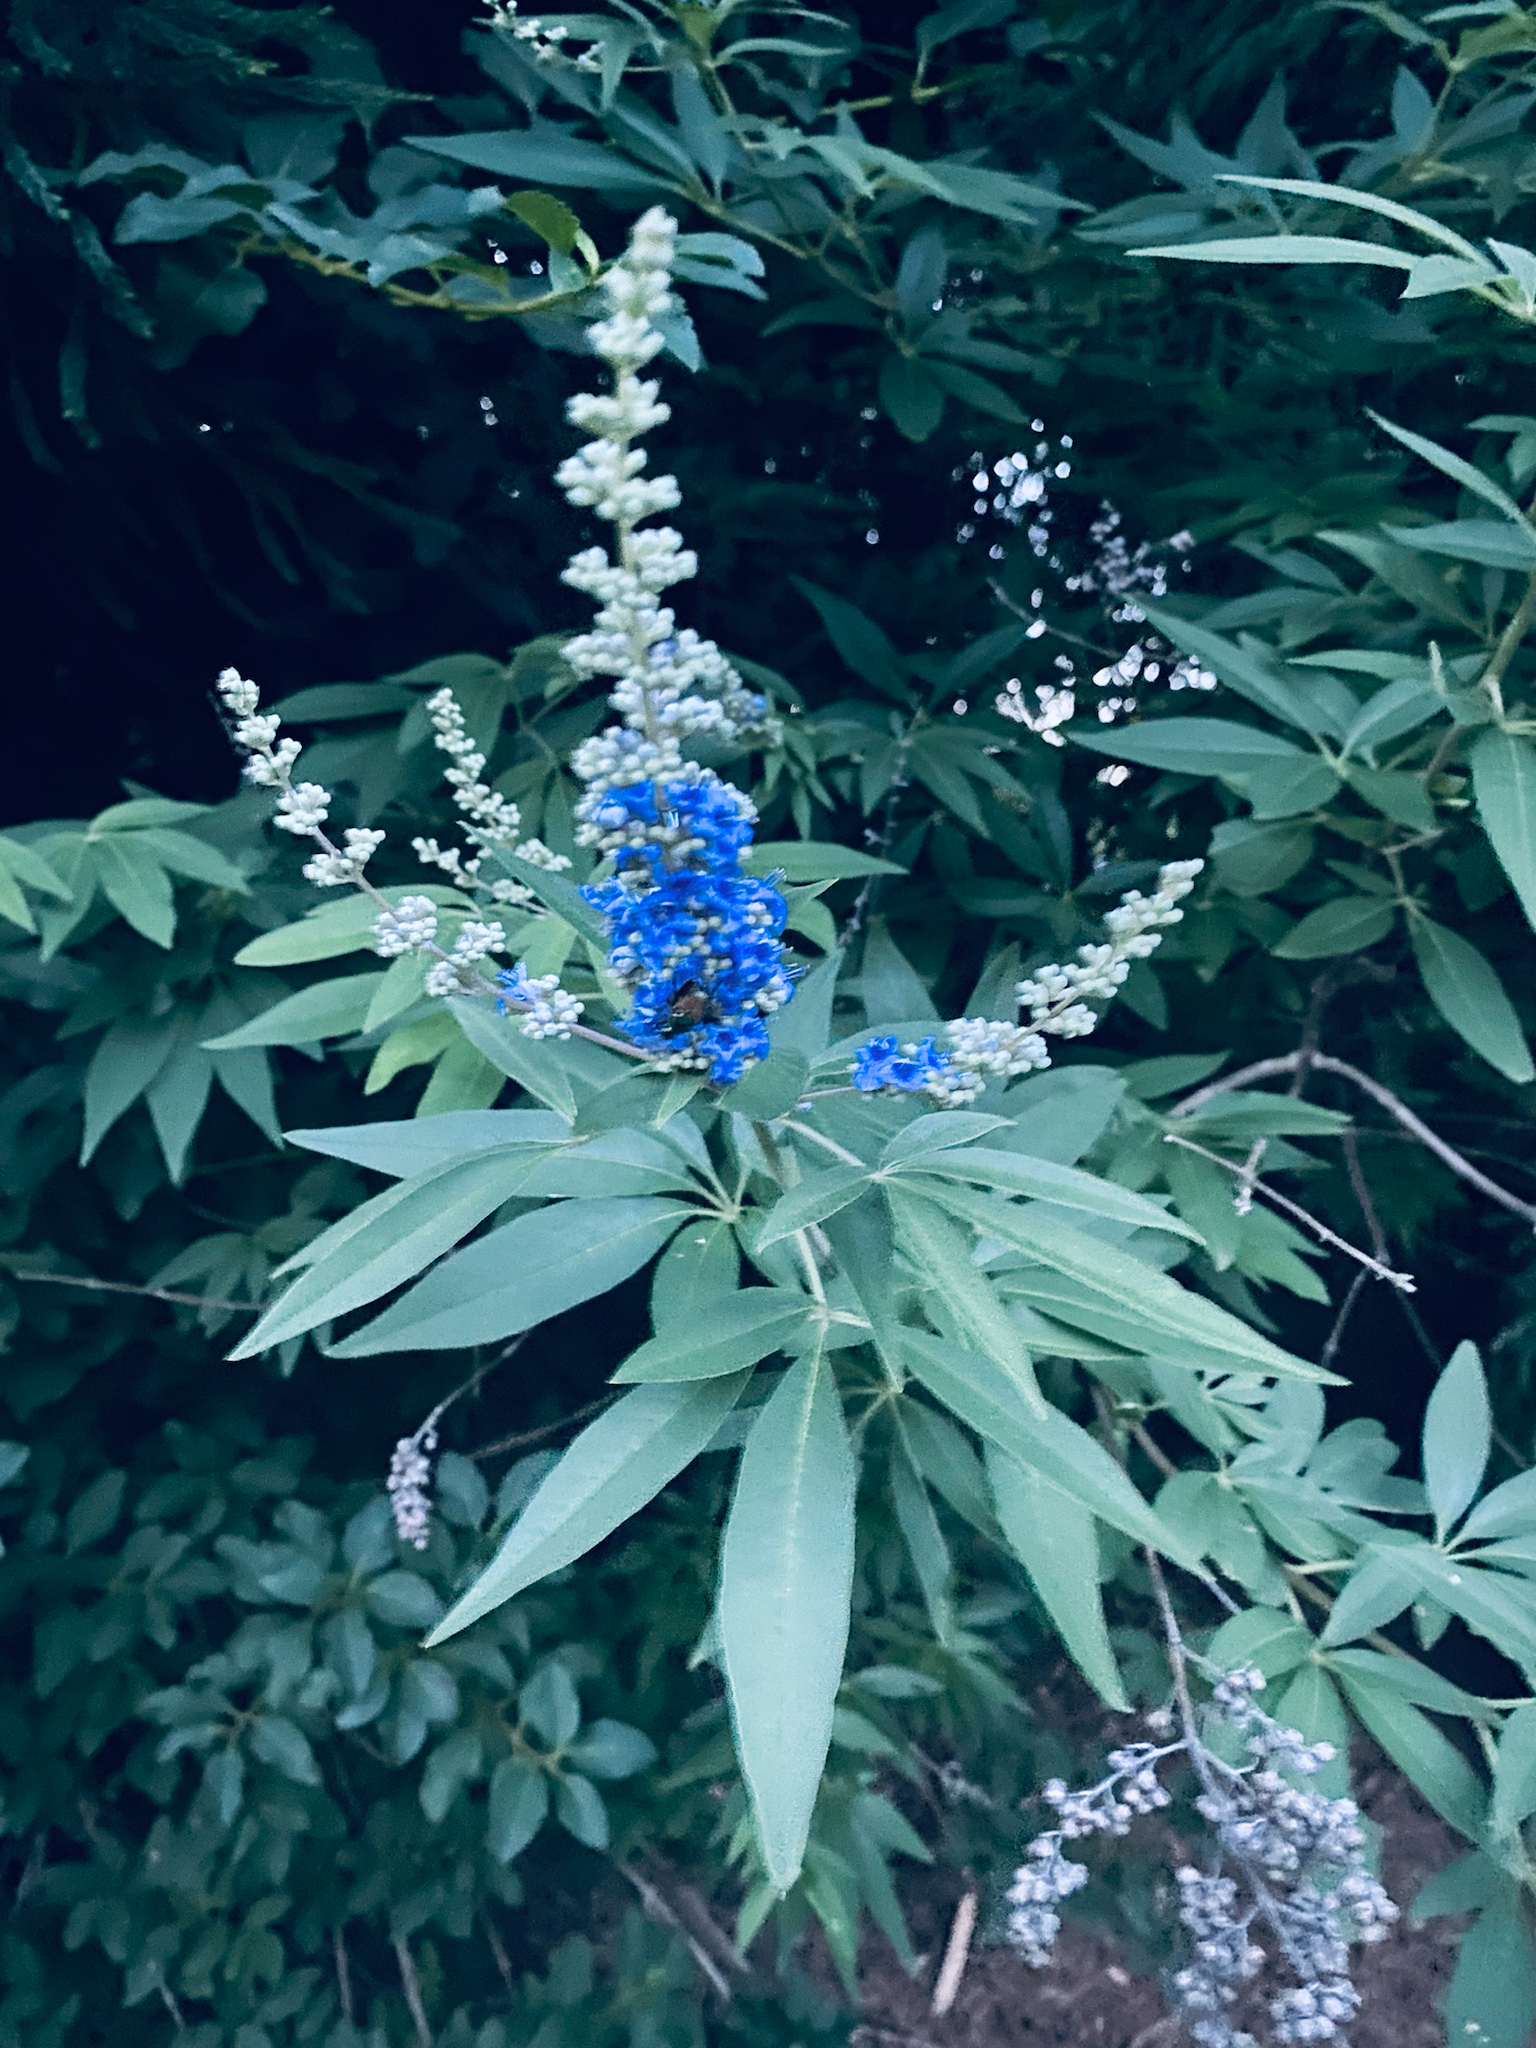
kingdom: Plantae
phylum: Tracheophyta
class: Magnoliopsida
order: Lamiales
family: Lamiaceae
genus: Vitex
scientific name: Vitex agnus-castus
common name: Chasteberry
